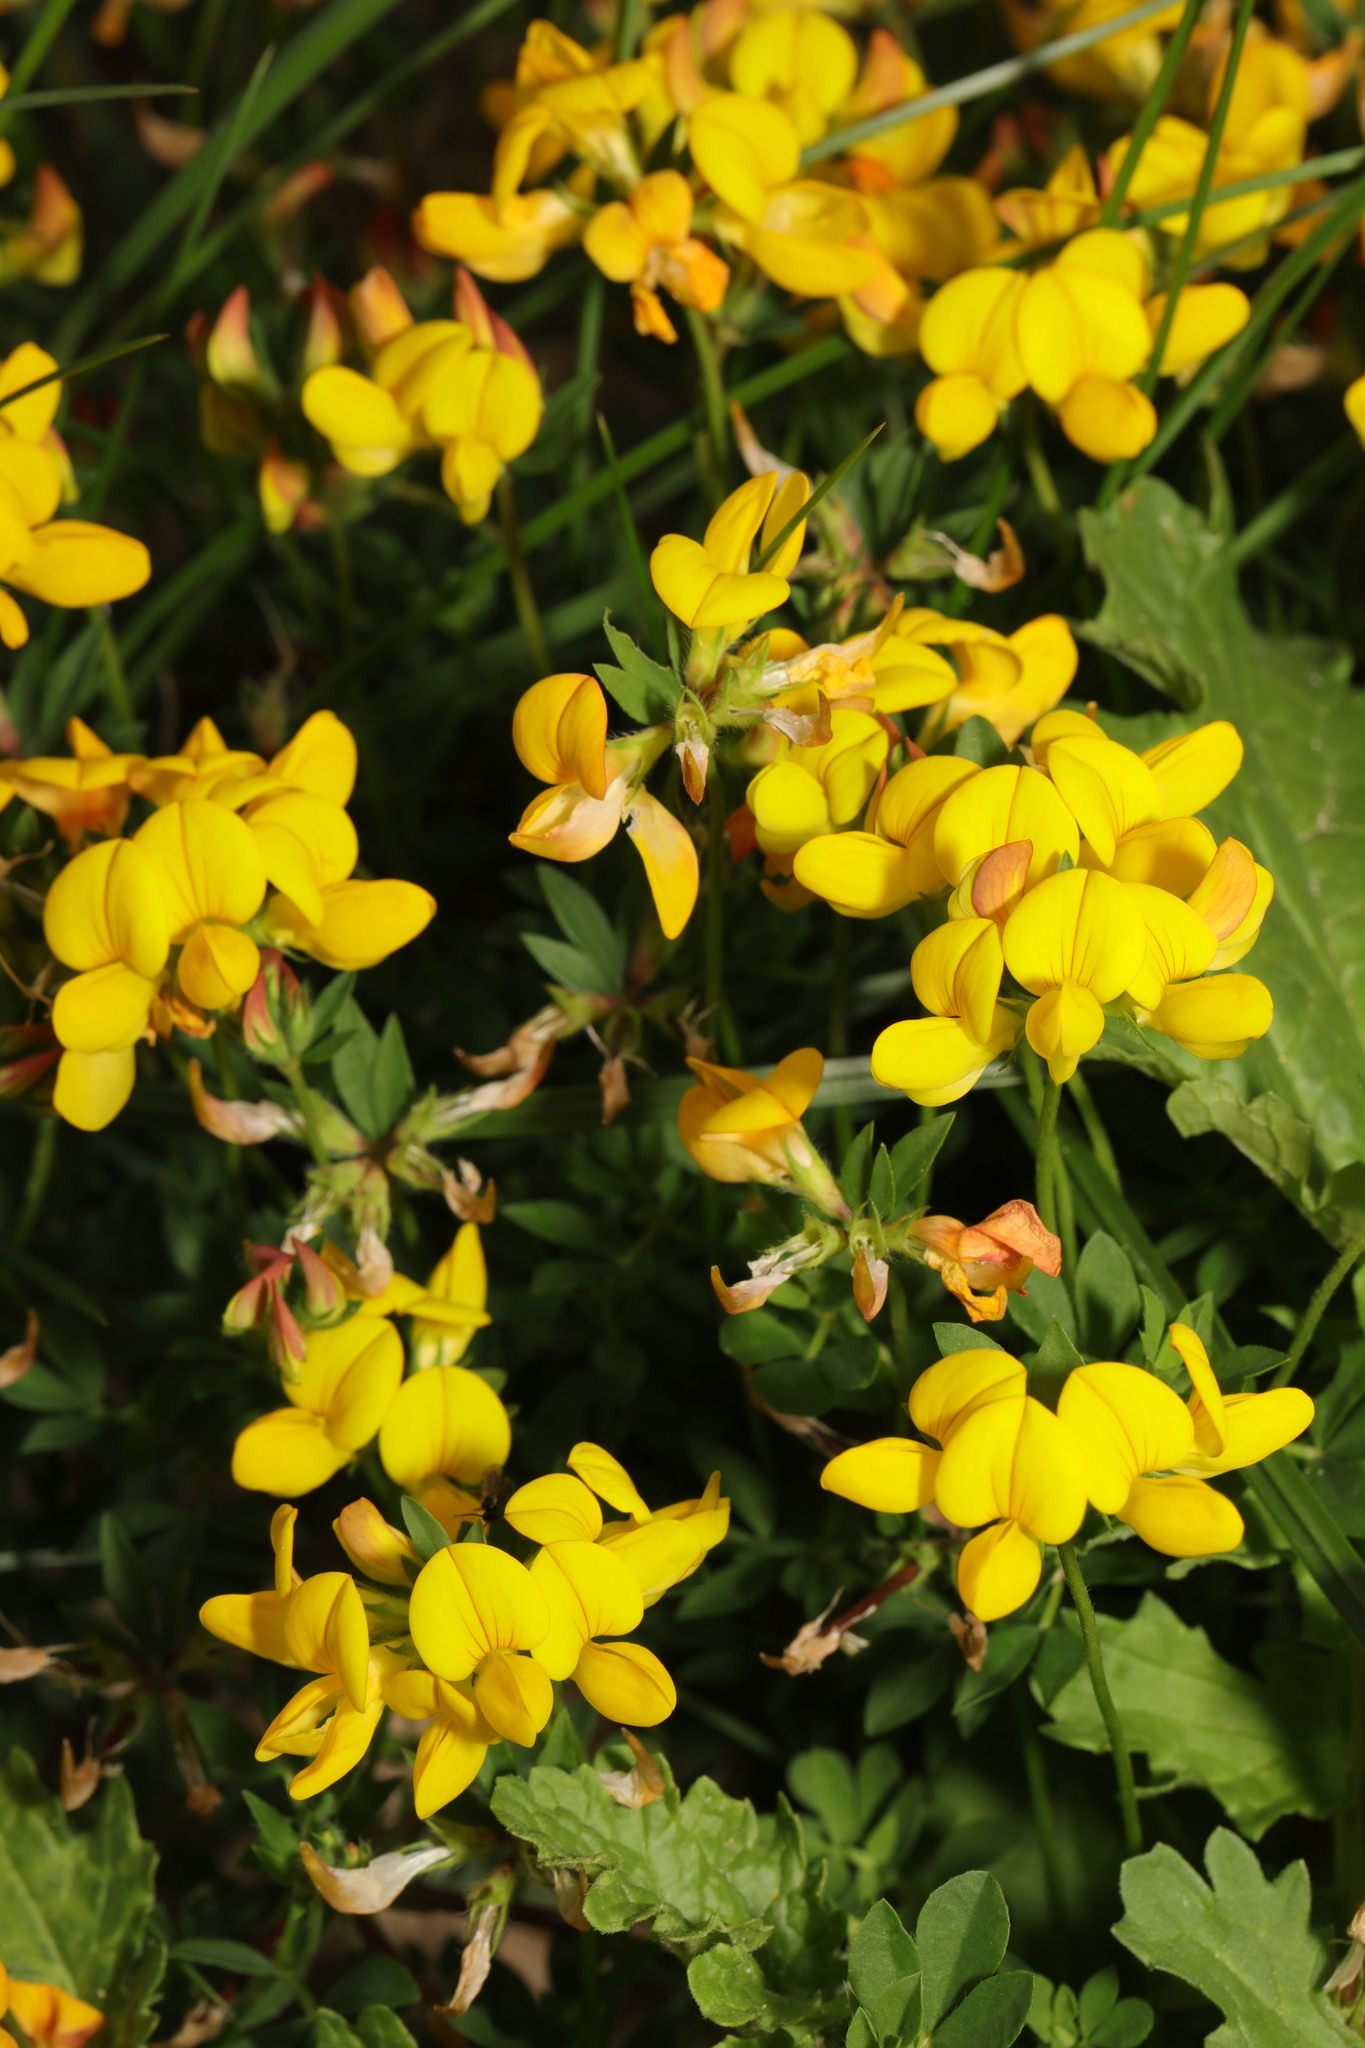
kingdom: Plantae
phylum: Tracheophyta
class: Magnoliopsida
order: Fabales
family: Fabaceae
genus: Lotus
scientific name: Lotus corniculatus
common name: Common bird's-foot-trefoil
